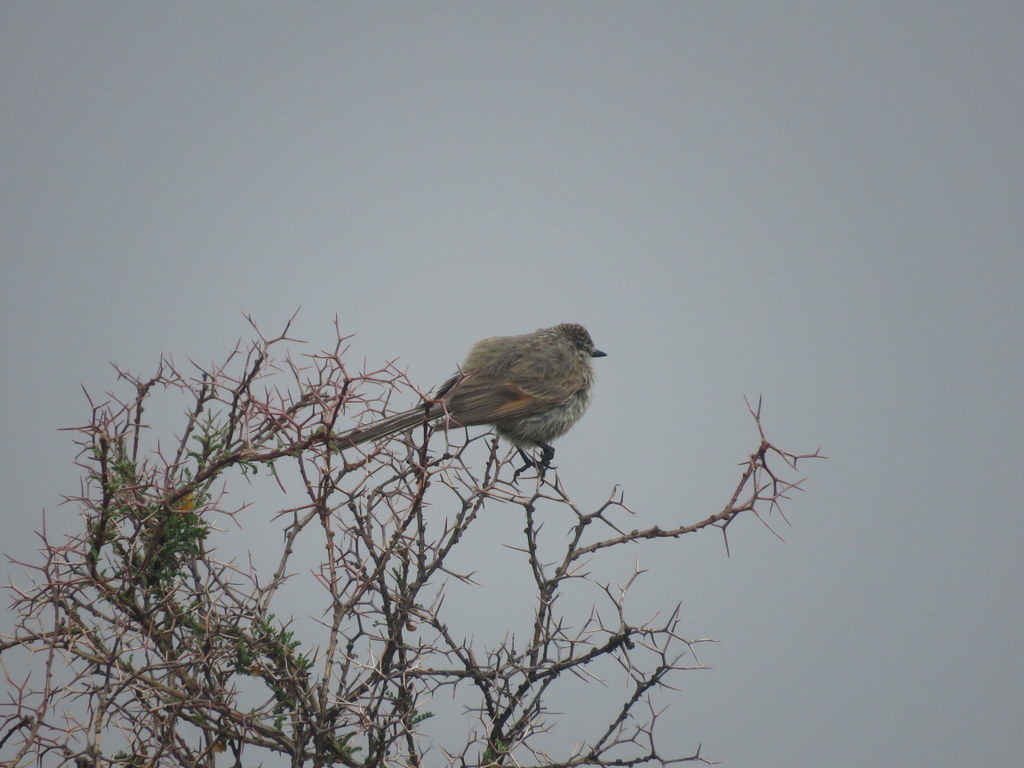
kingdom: Animalia
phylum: Chordata
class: Aves
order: Passeriformes
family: Furnariidae
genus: Leptasthenura
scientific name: Leptasthenura aegithaloides
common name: Plain-mantled tit-spinetail
